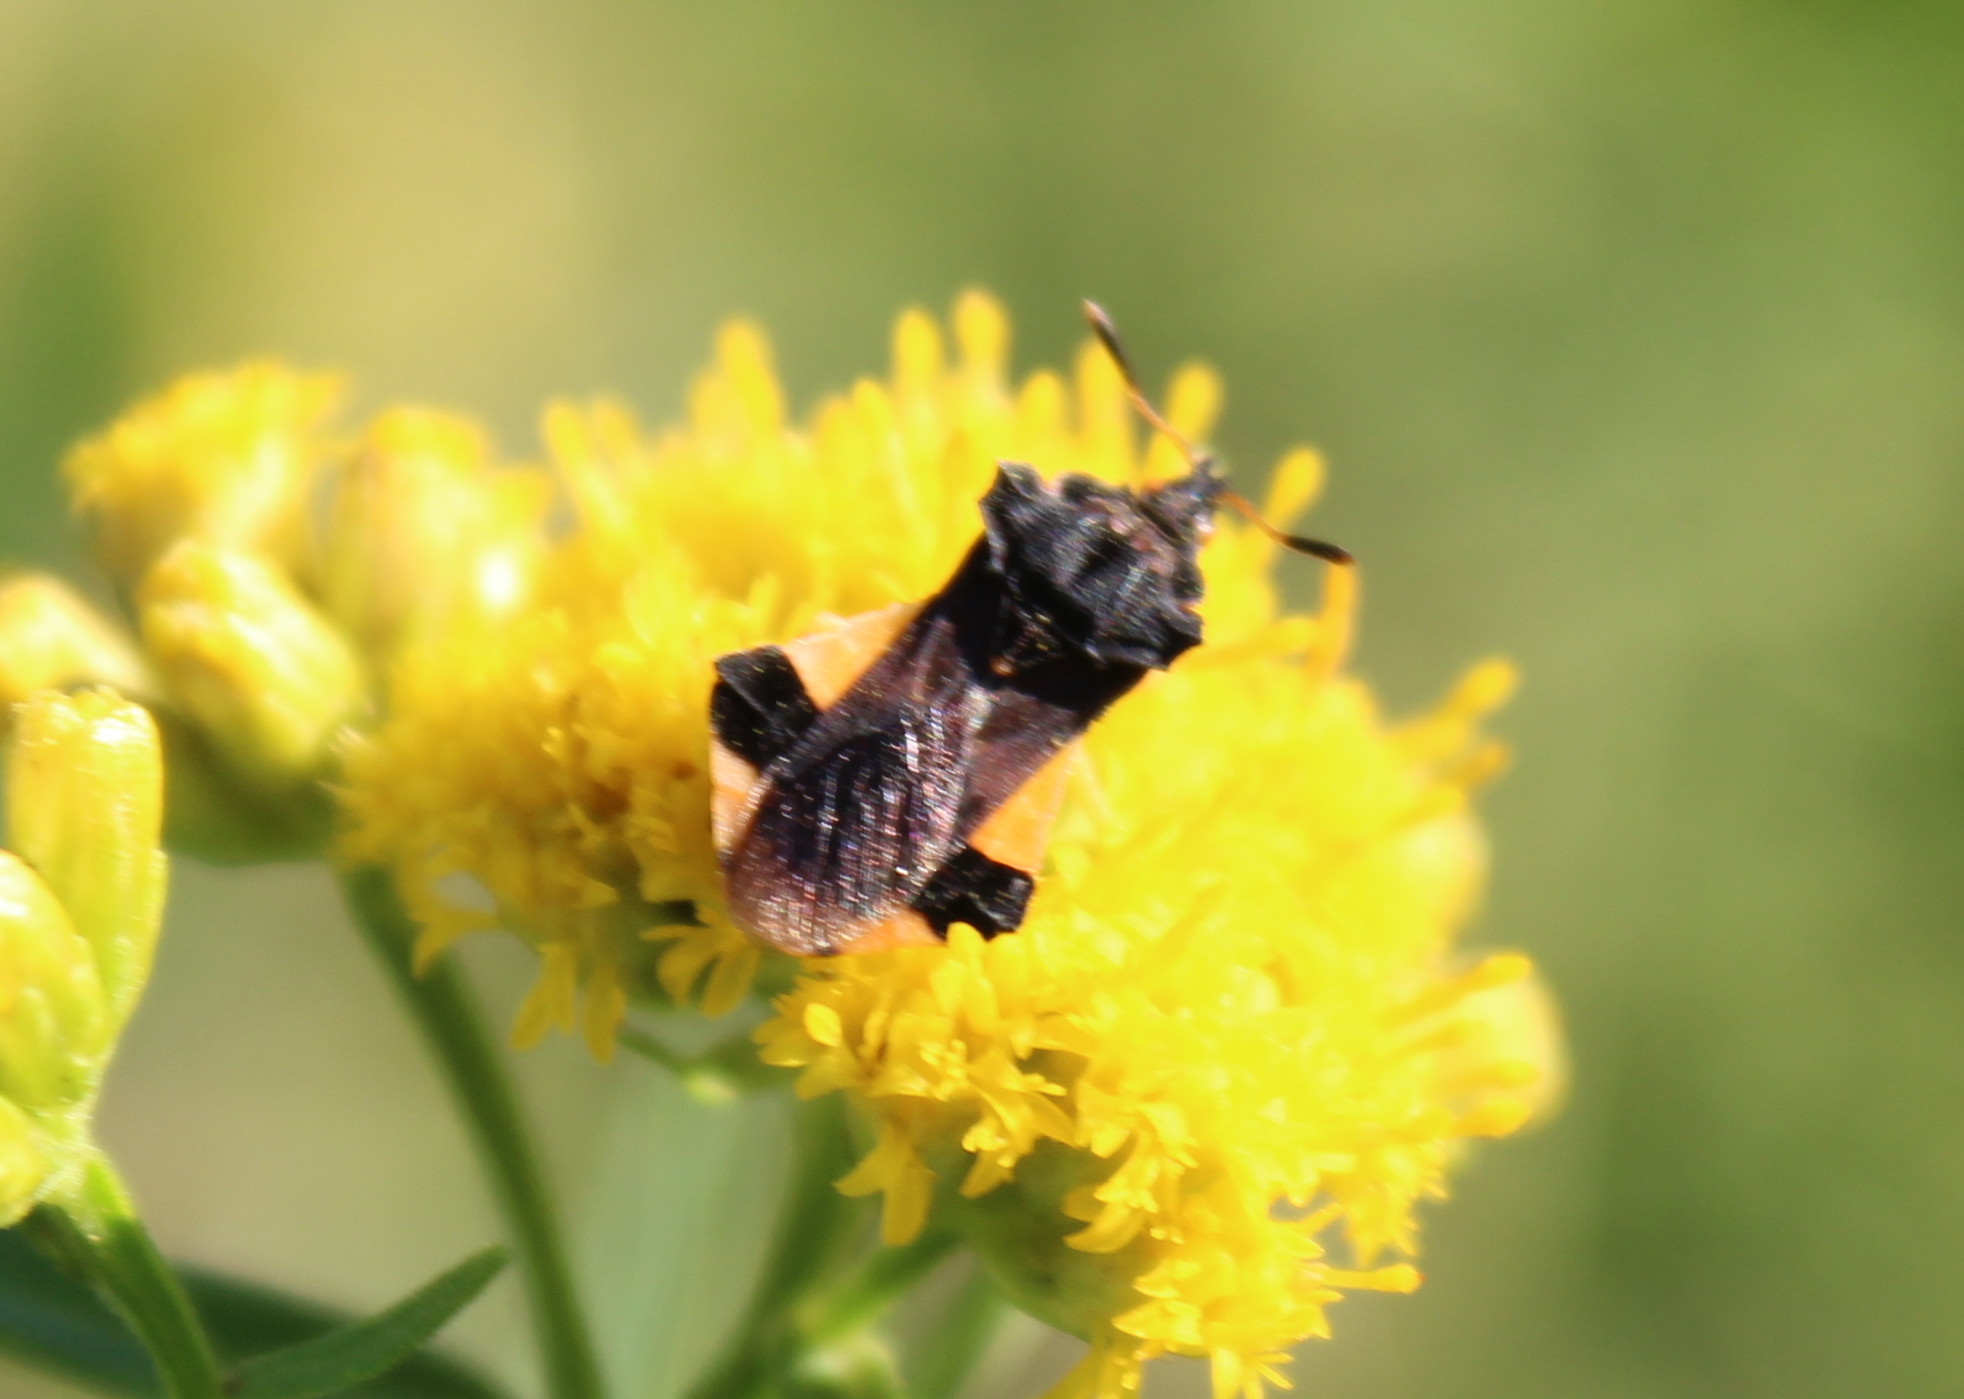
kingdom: Animalia
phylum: Arthropoda
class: Insecta
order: Hemiptera
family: Reduviidae
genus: Phymata
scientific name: Phymata pennsylvanica
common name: Pennsylvania ambush bug
